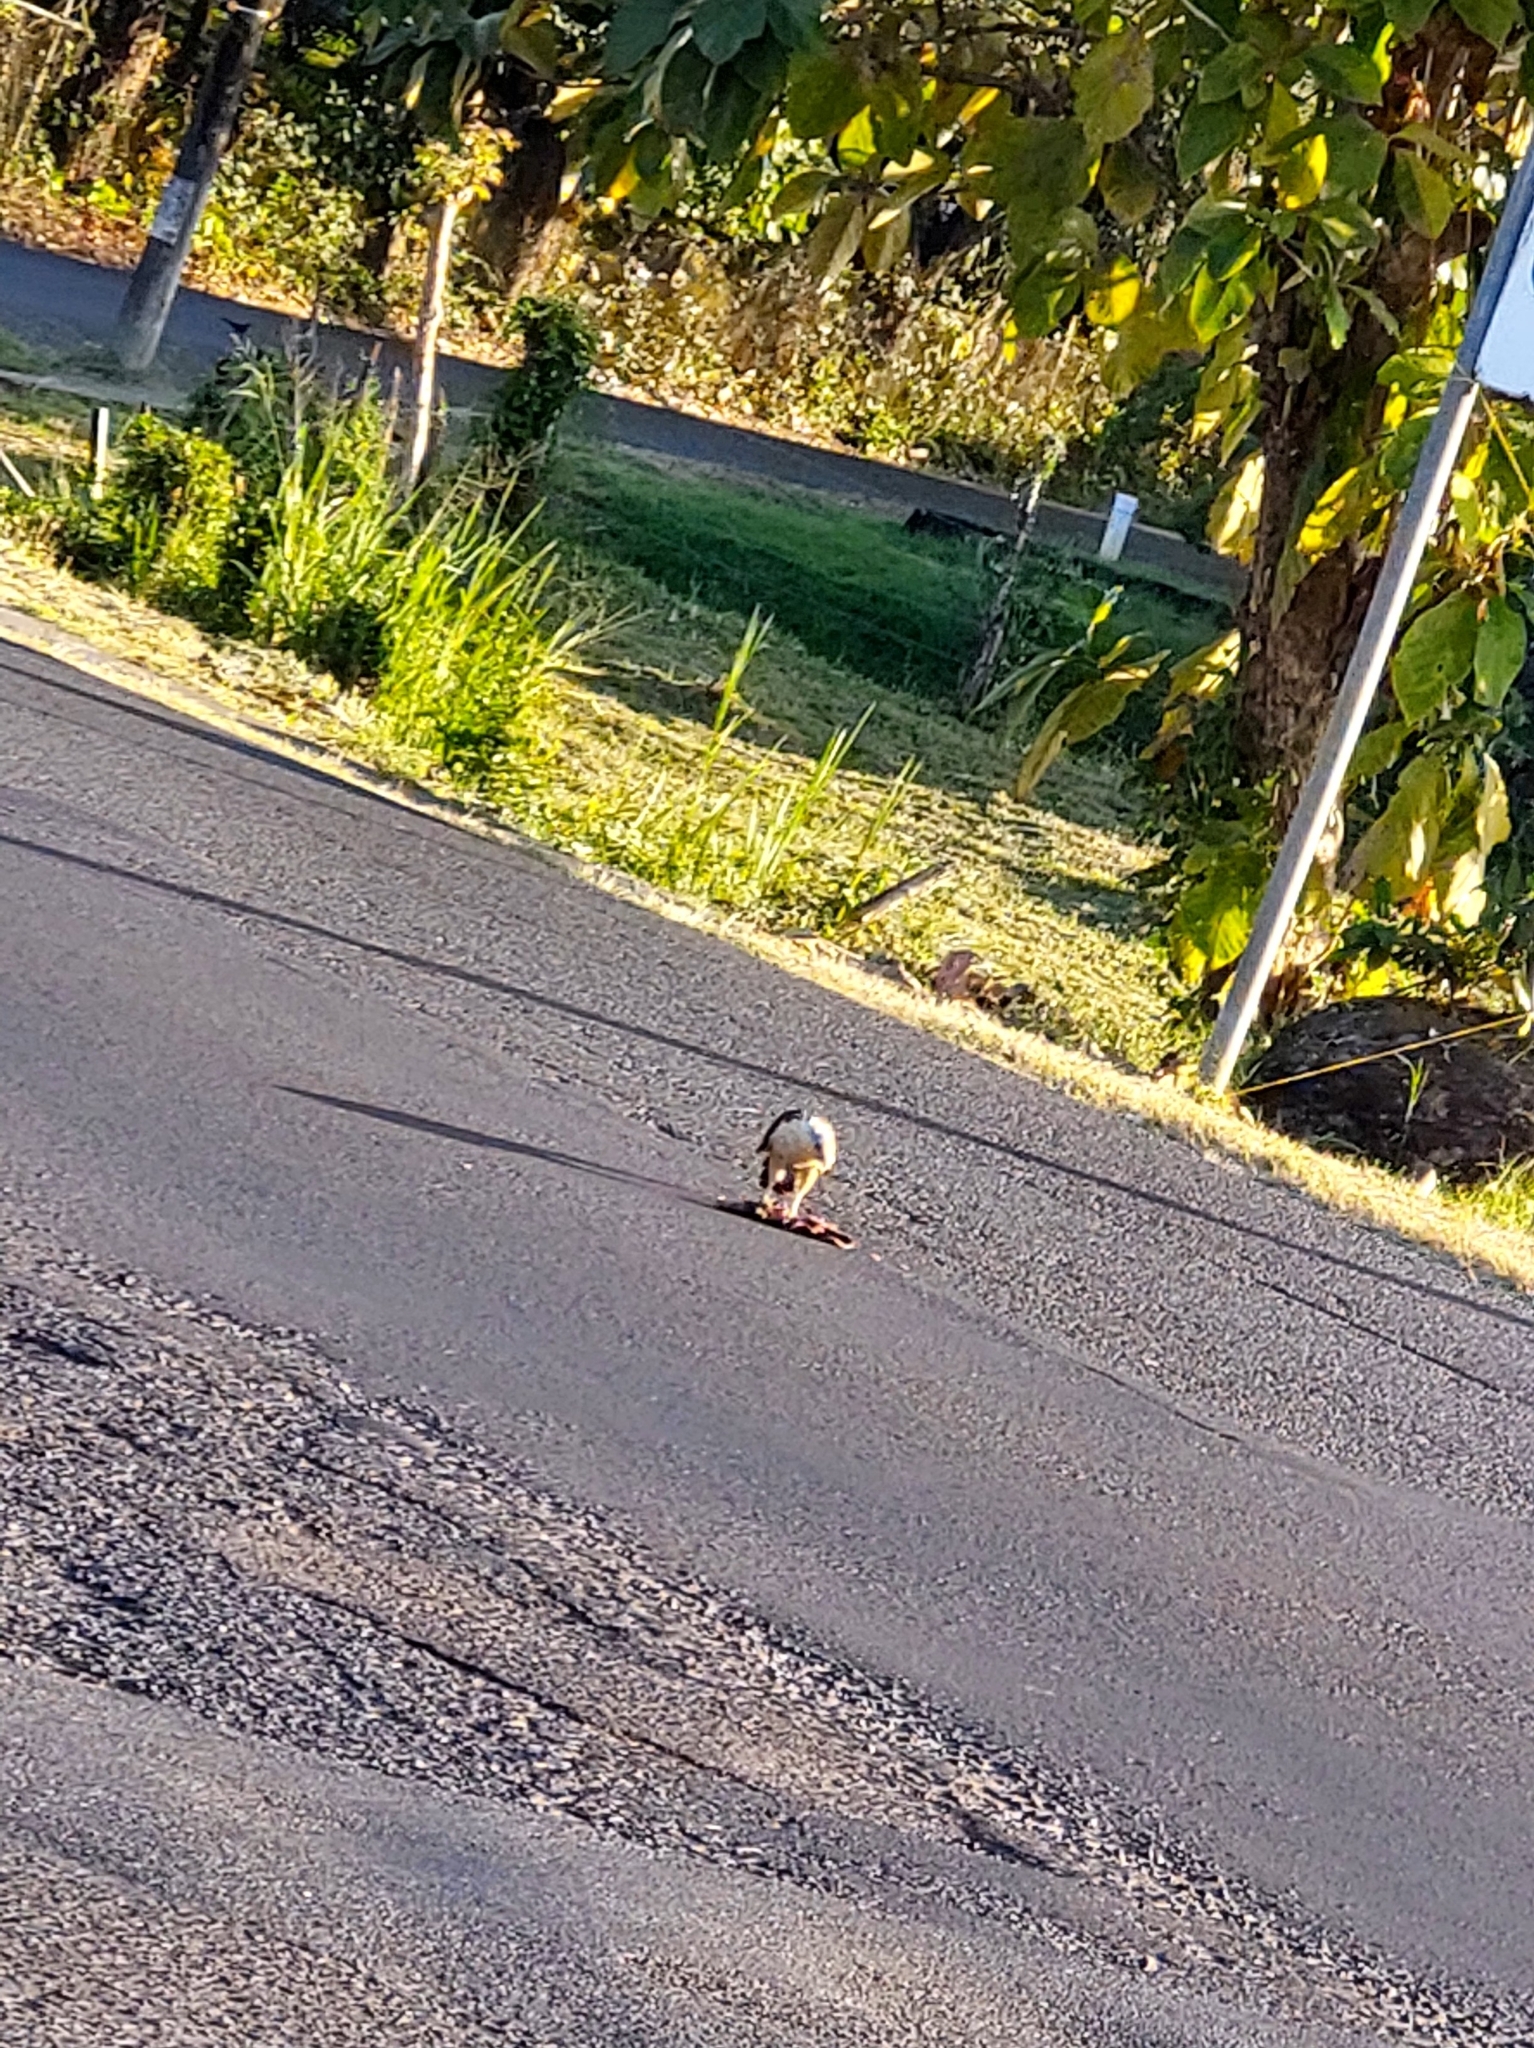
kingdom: Animalia
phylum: Chordata
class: Aves
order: Falconiformes
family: Falconidae
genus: Daptrius
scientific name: Daptrius
